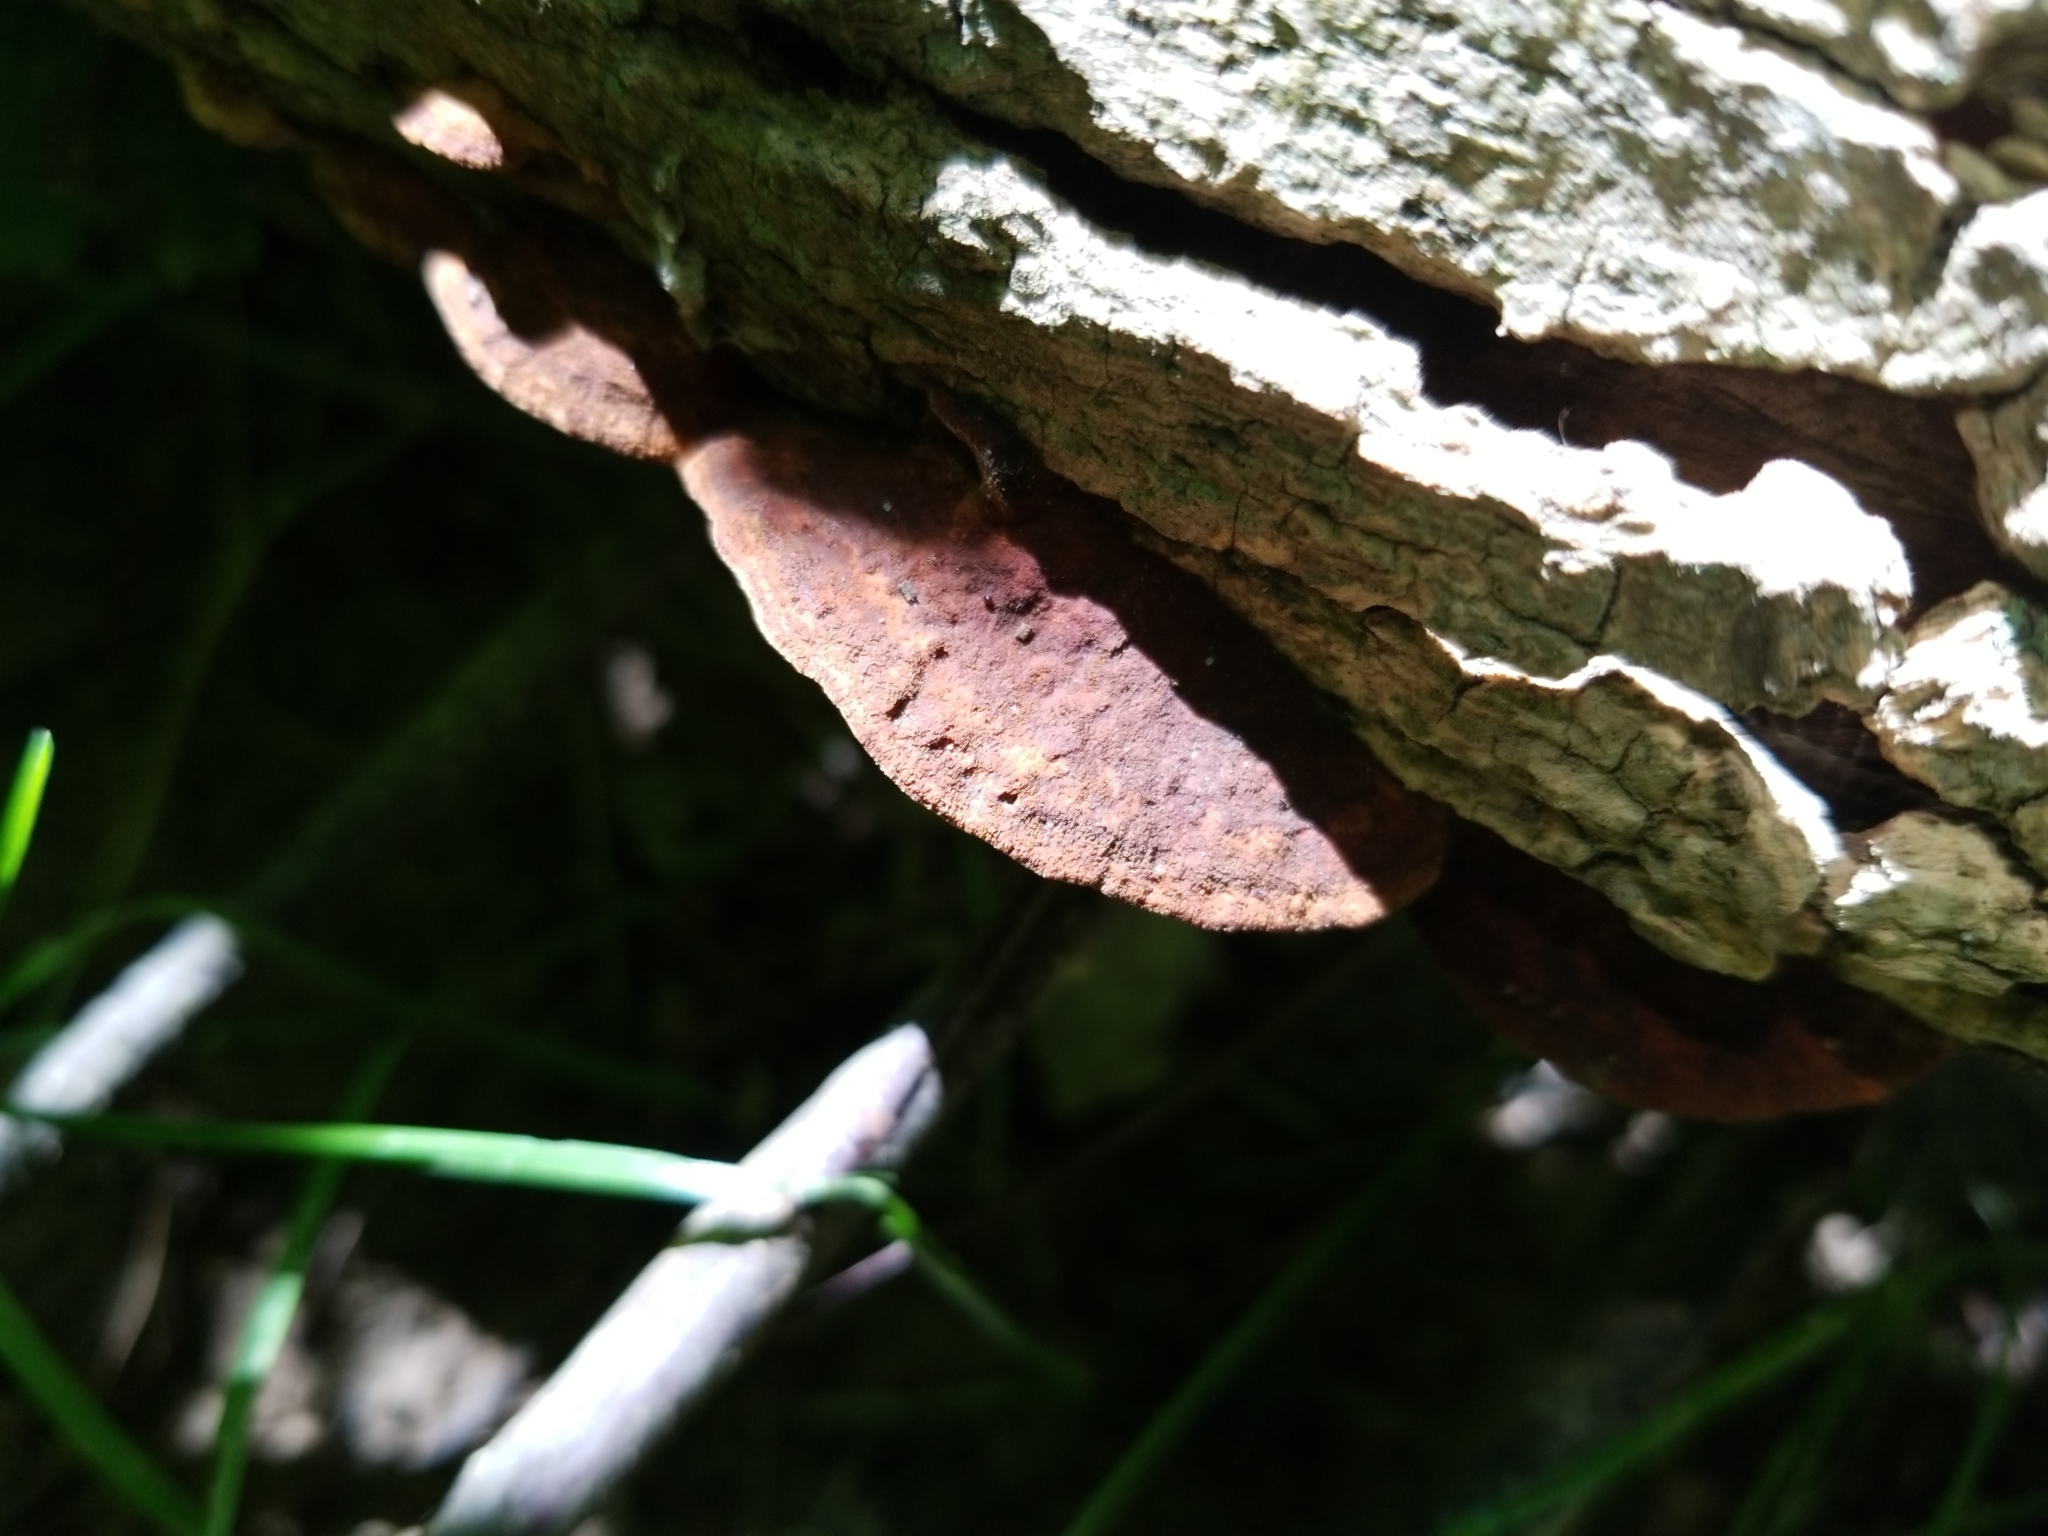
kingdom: Fungi
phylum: Basidiomycota
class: Agaricomycetes
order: Hymenochaetales
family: Hymenochaetaceae
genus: Phellinus
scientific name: Phellinus gilvus
